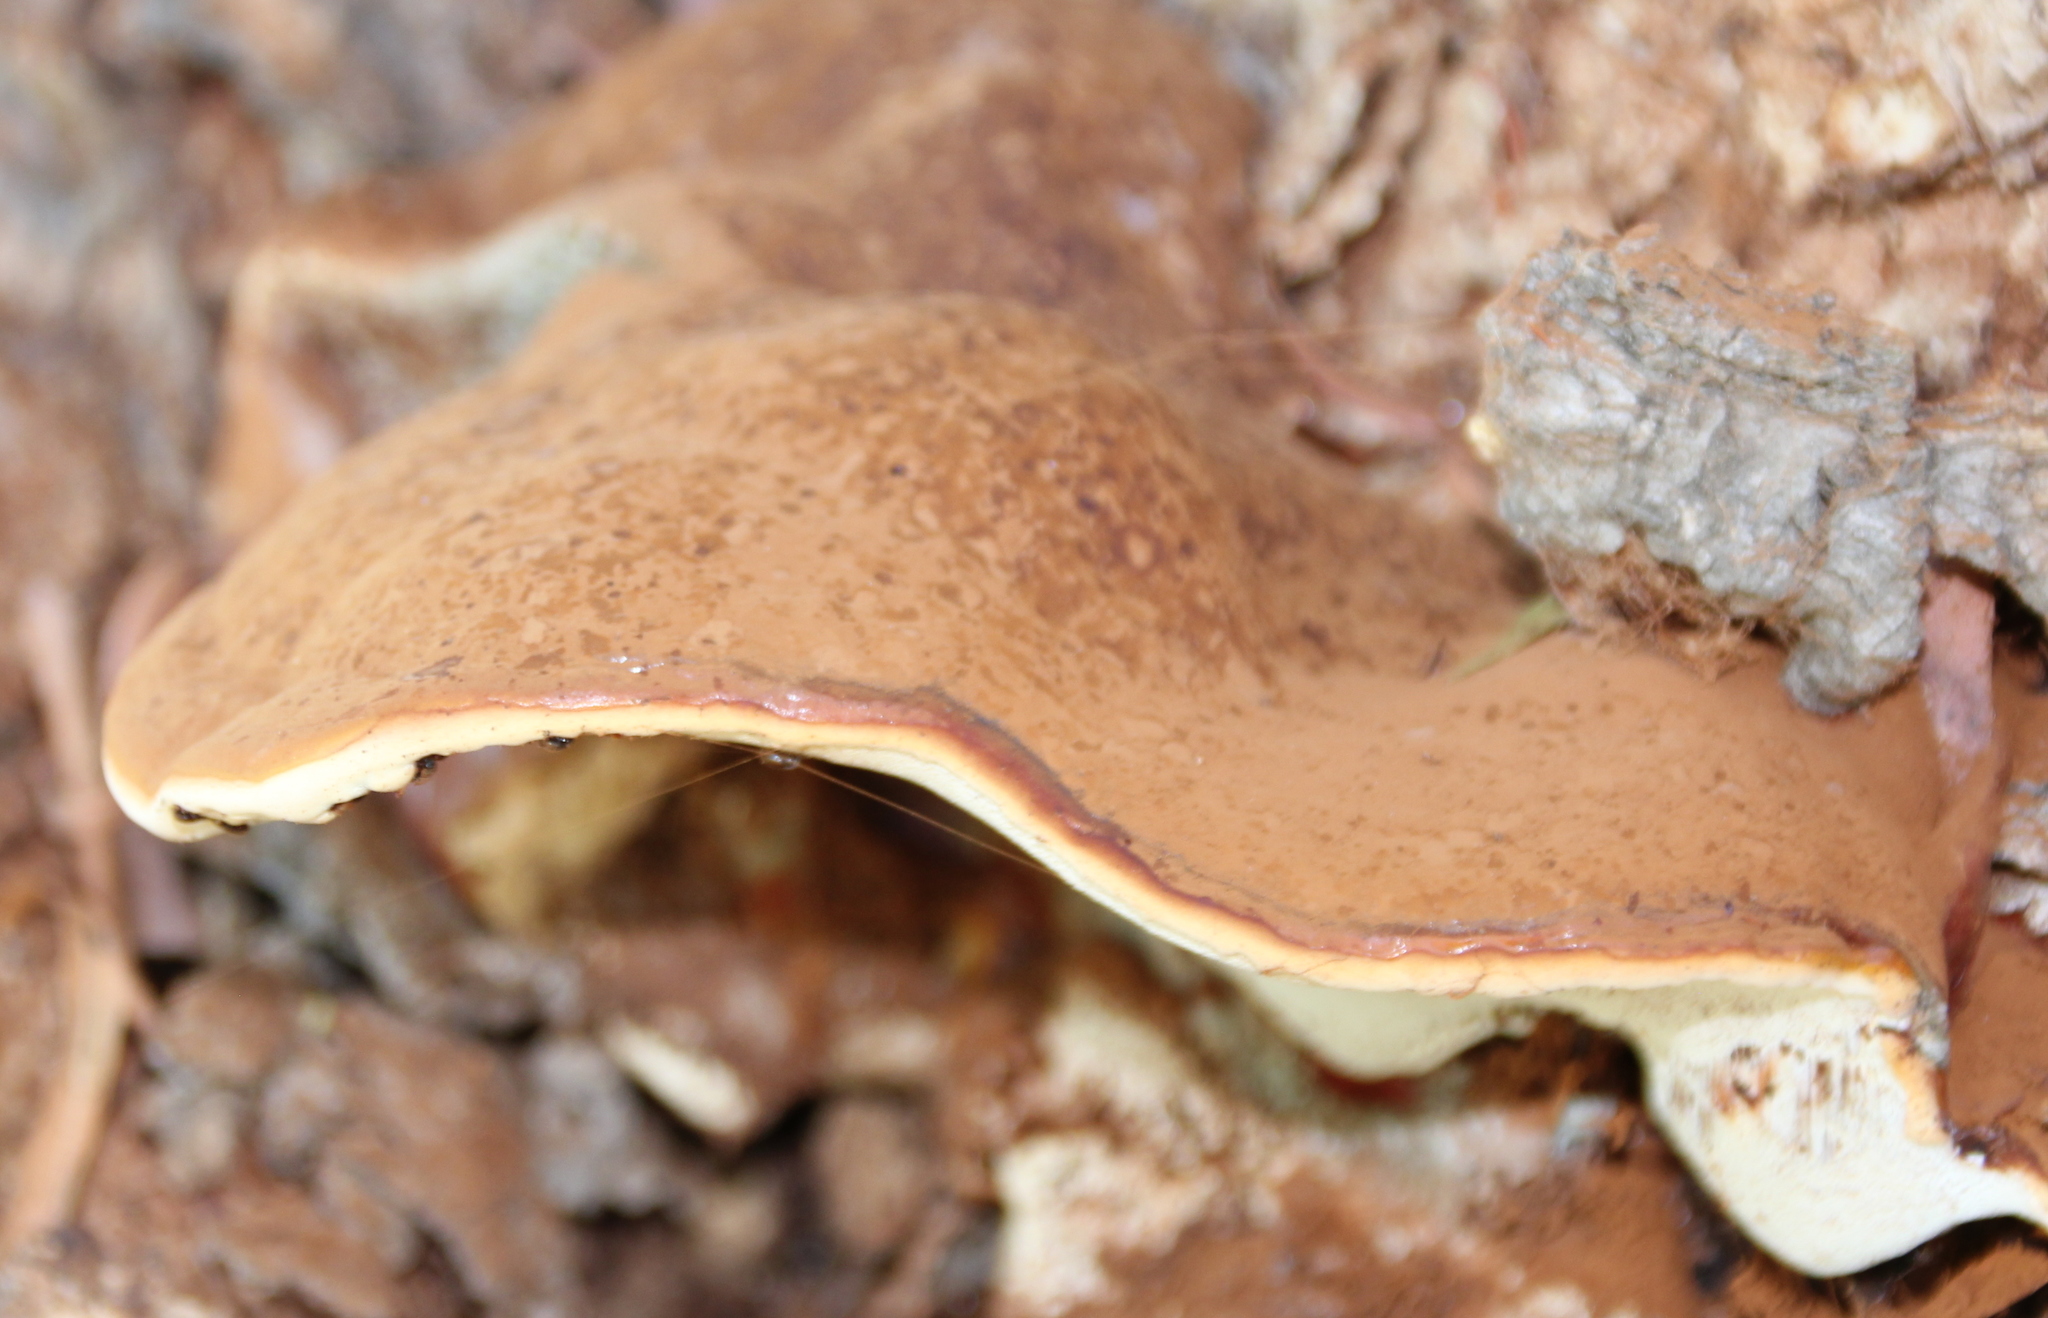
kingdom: Fungi
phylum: Basidiomycota
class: Agaricomycetes
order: Polyporales
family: Polyporaceae
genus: Ganoderma
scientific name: Ganoderma applanatum
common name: Artist's bracket
